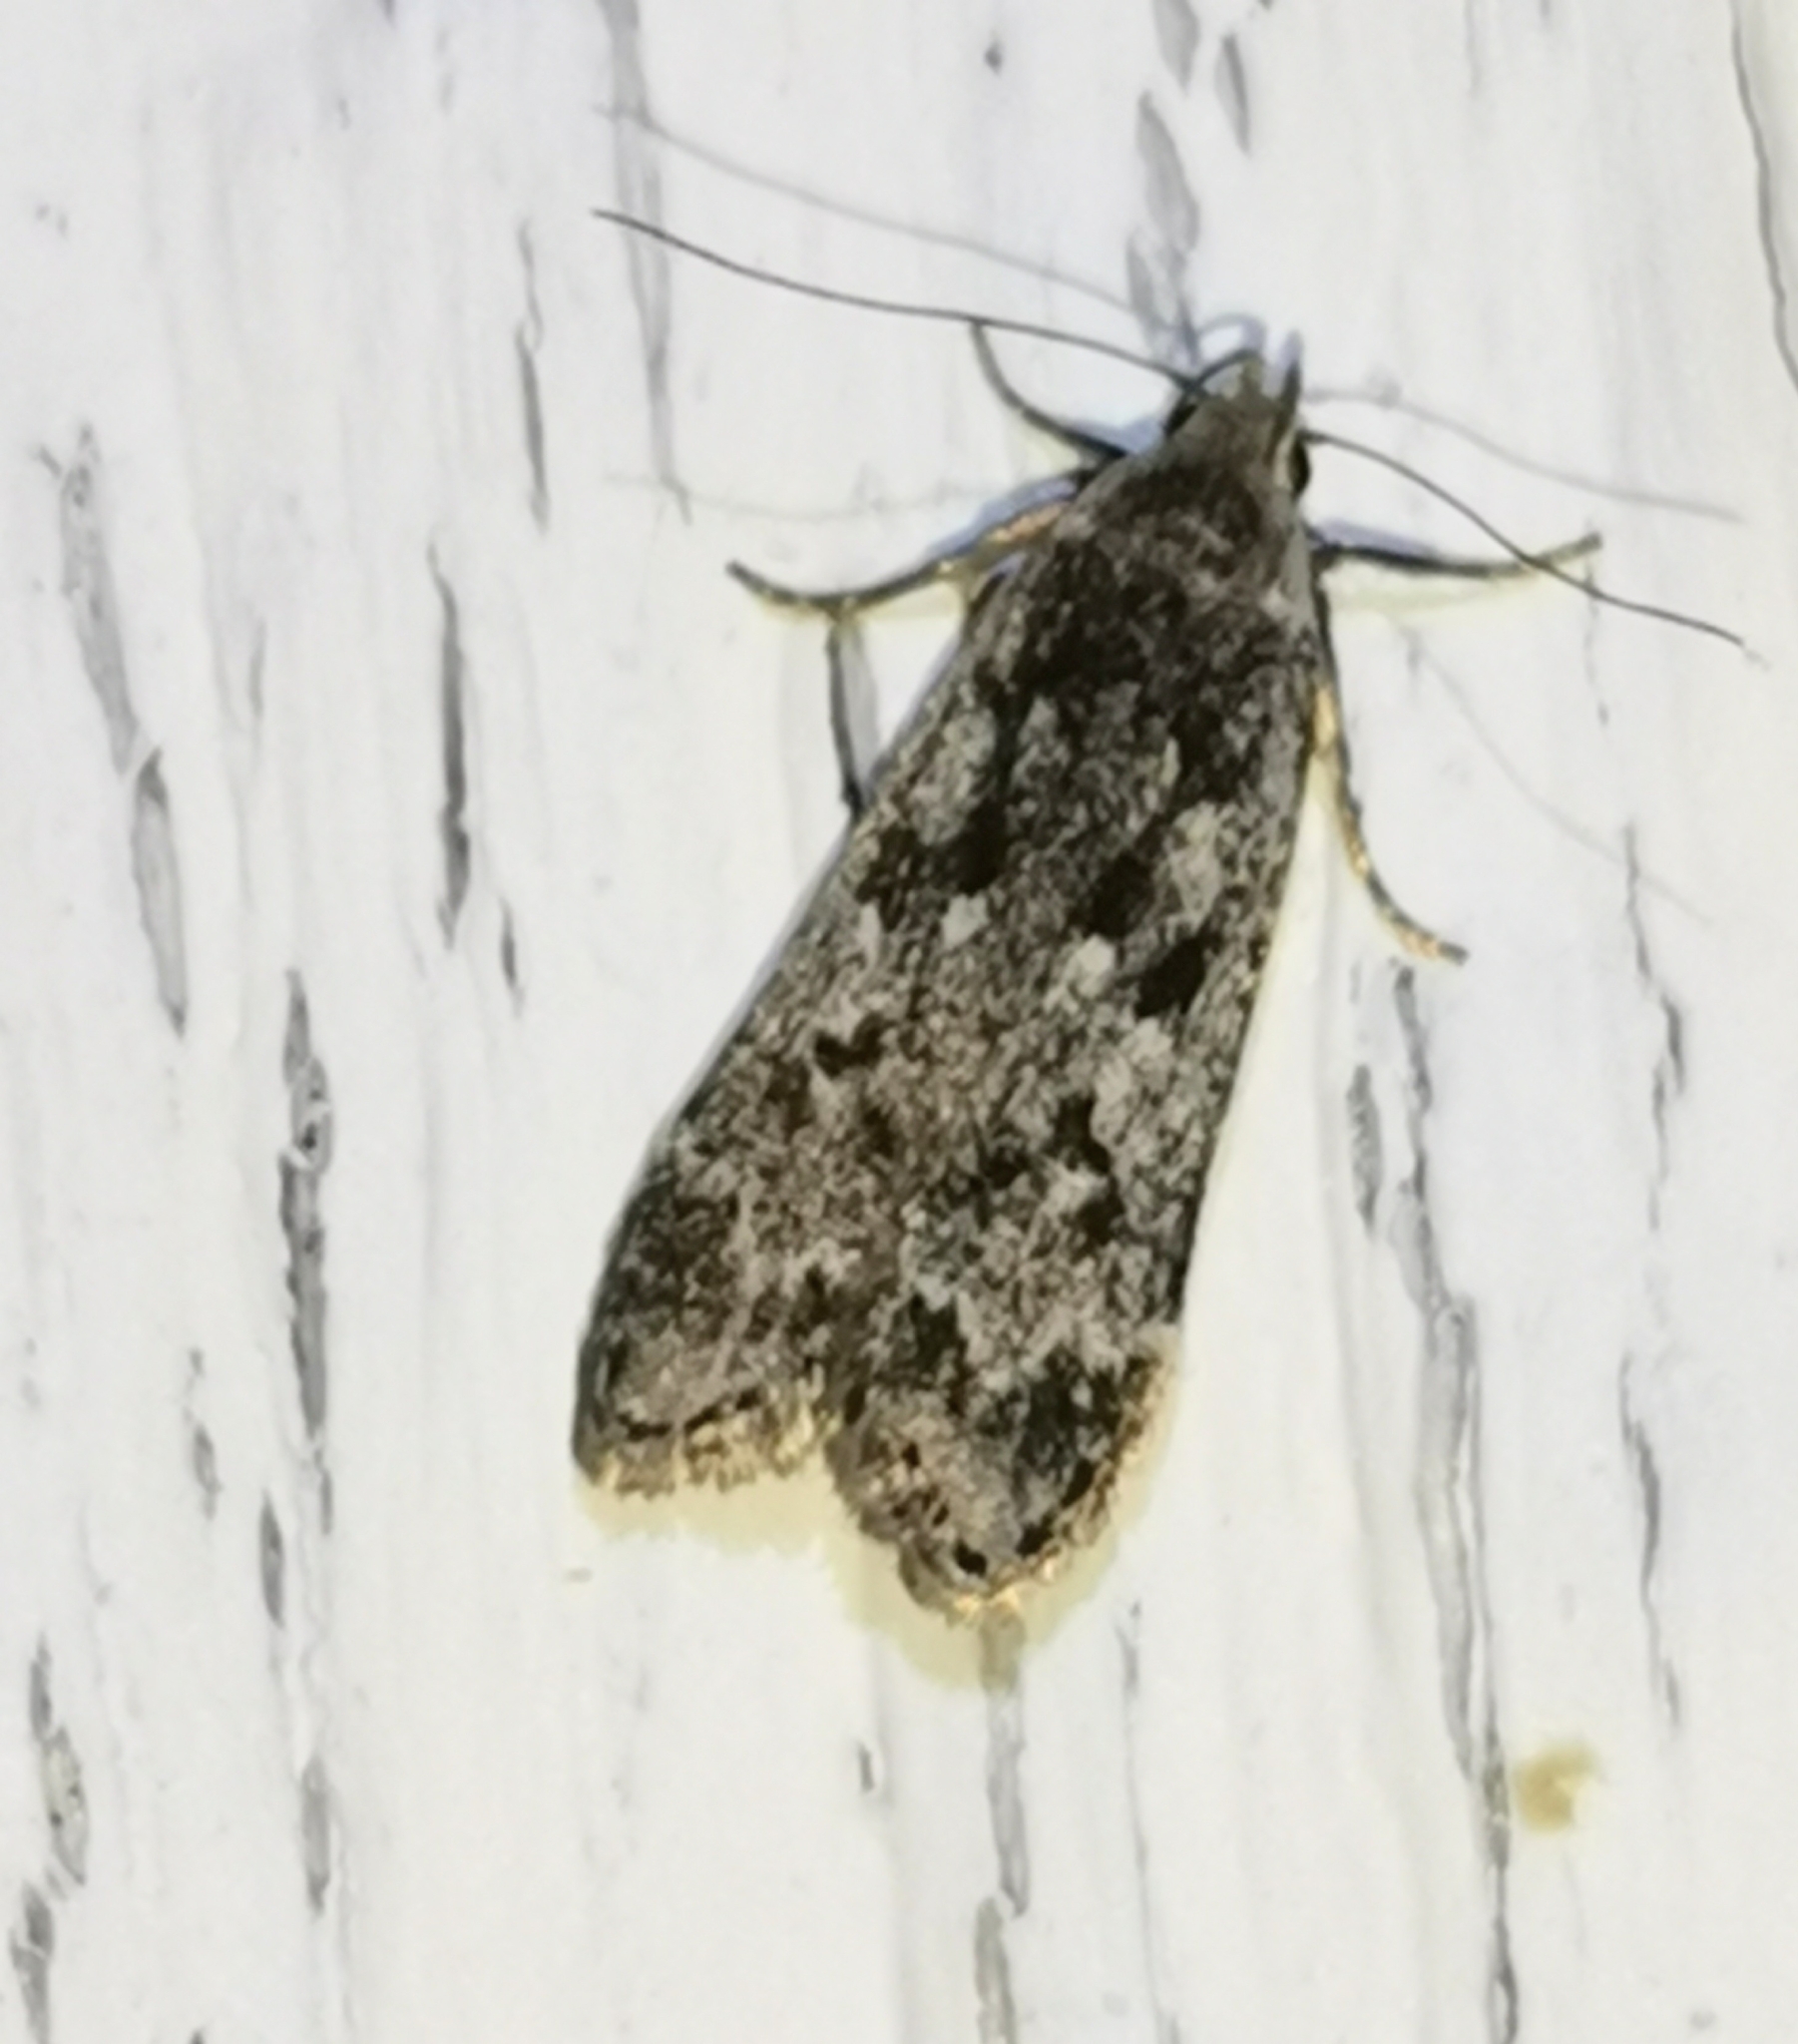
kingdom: Animalia
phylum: Arthropoda
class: Insecta
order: Lepidoptera
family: Gelechiidae
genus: Anacampsis
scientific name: Anacampsis blattariella
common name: Birch sober
